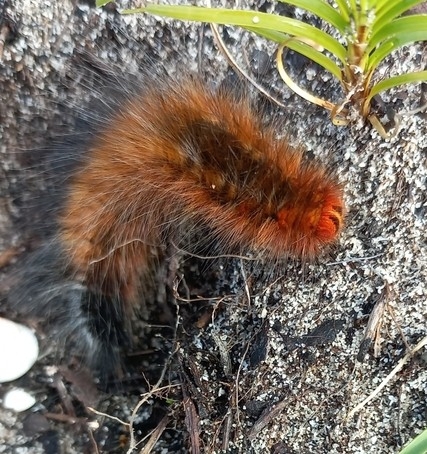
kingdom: Animalia
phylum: Arthropoda
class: Insecta
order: Lepidoptera
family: Lasiocampidae
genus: Mesocelis
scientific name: Mesocelis monticola
